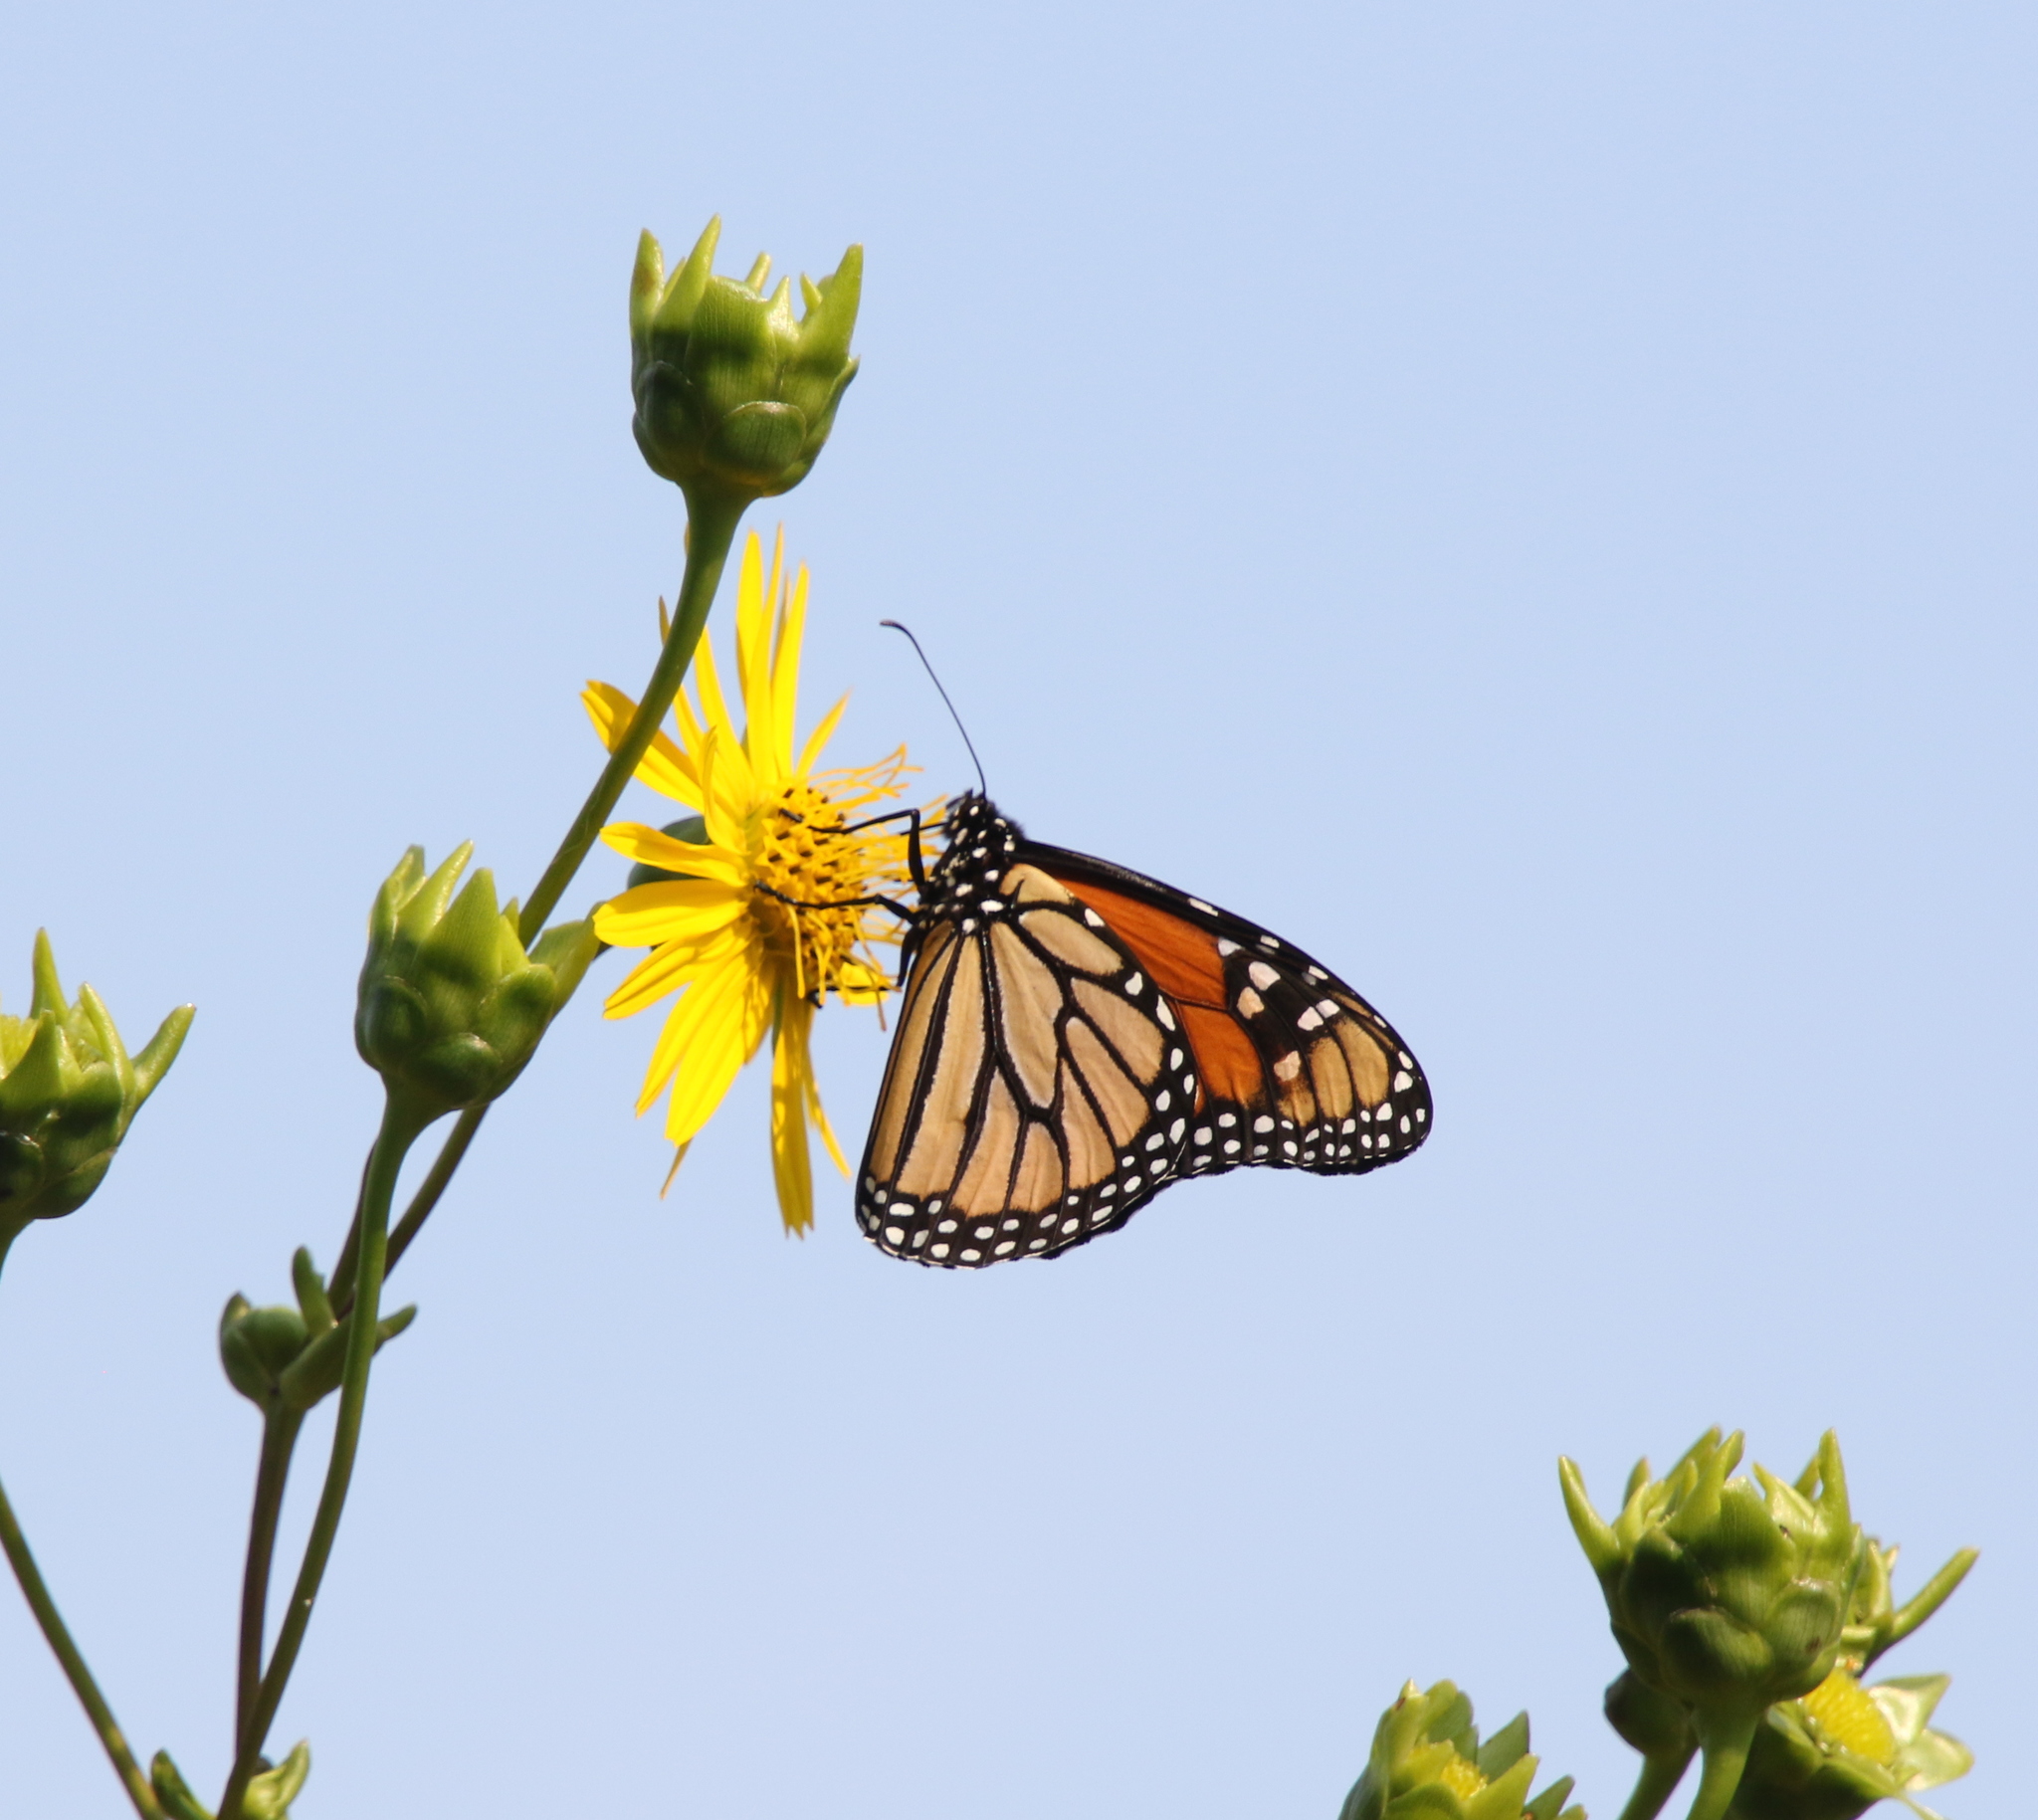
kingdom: Animalia
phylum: Arthropoda
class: Insecta
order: Lepidoptera
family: Nymphalidae
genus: Danaus
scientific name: Danaus plexippus
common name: Monarch
